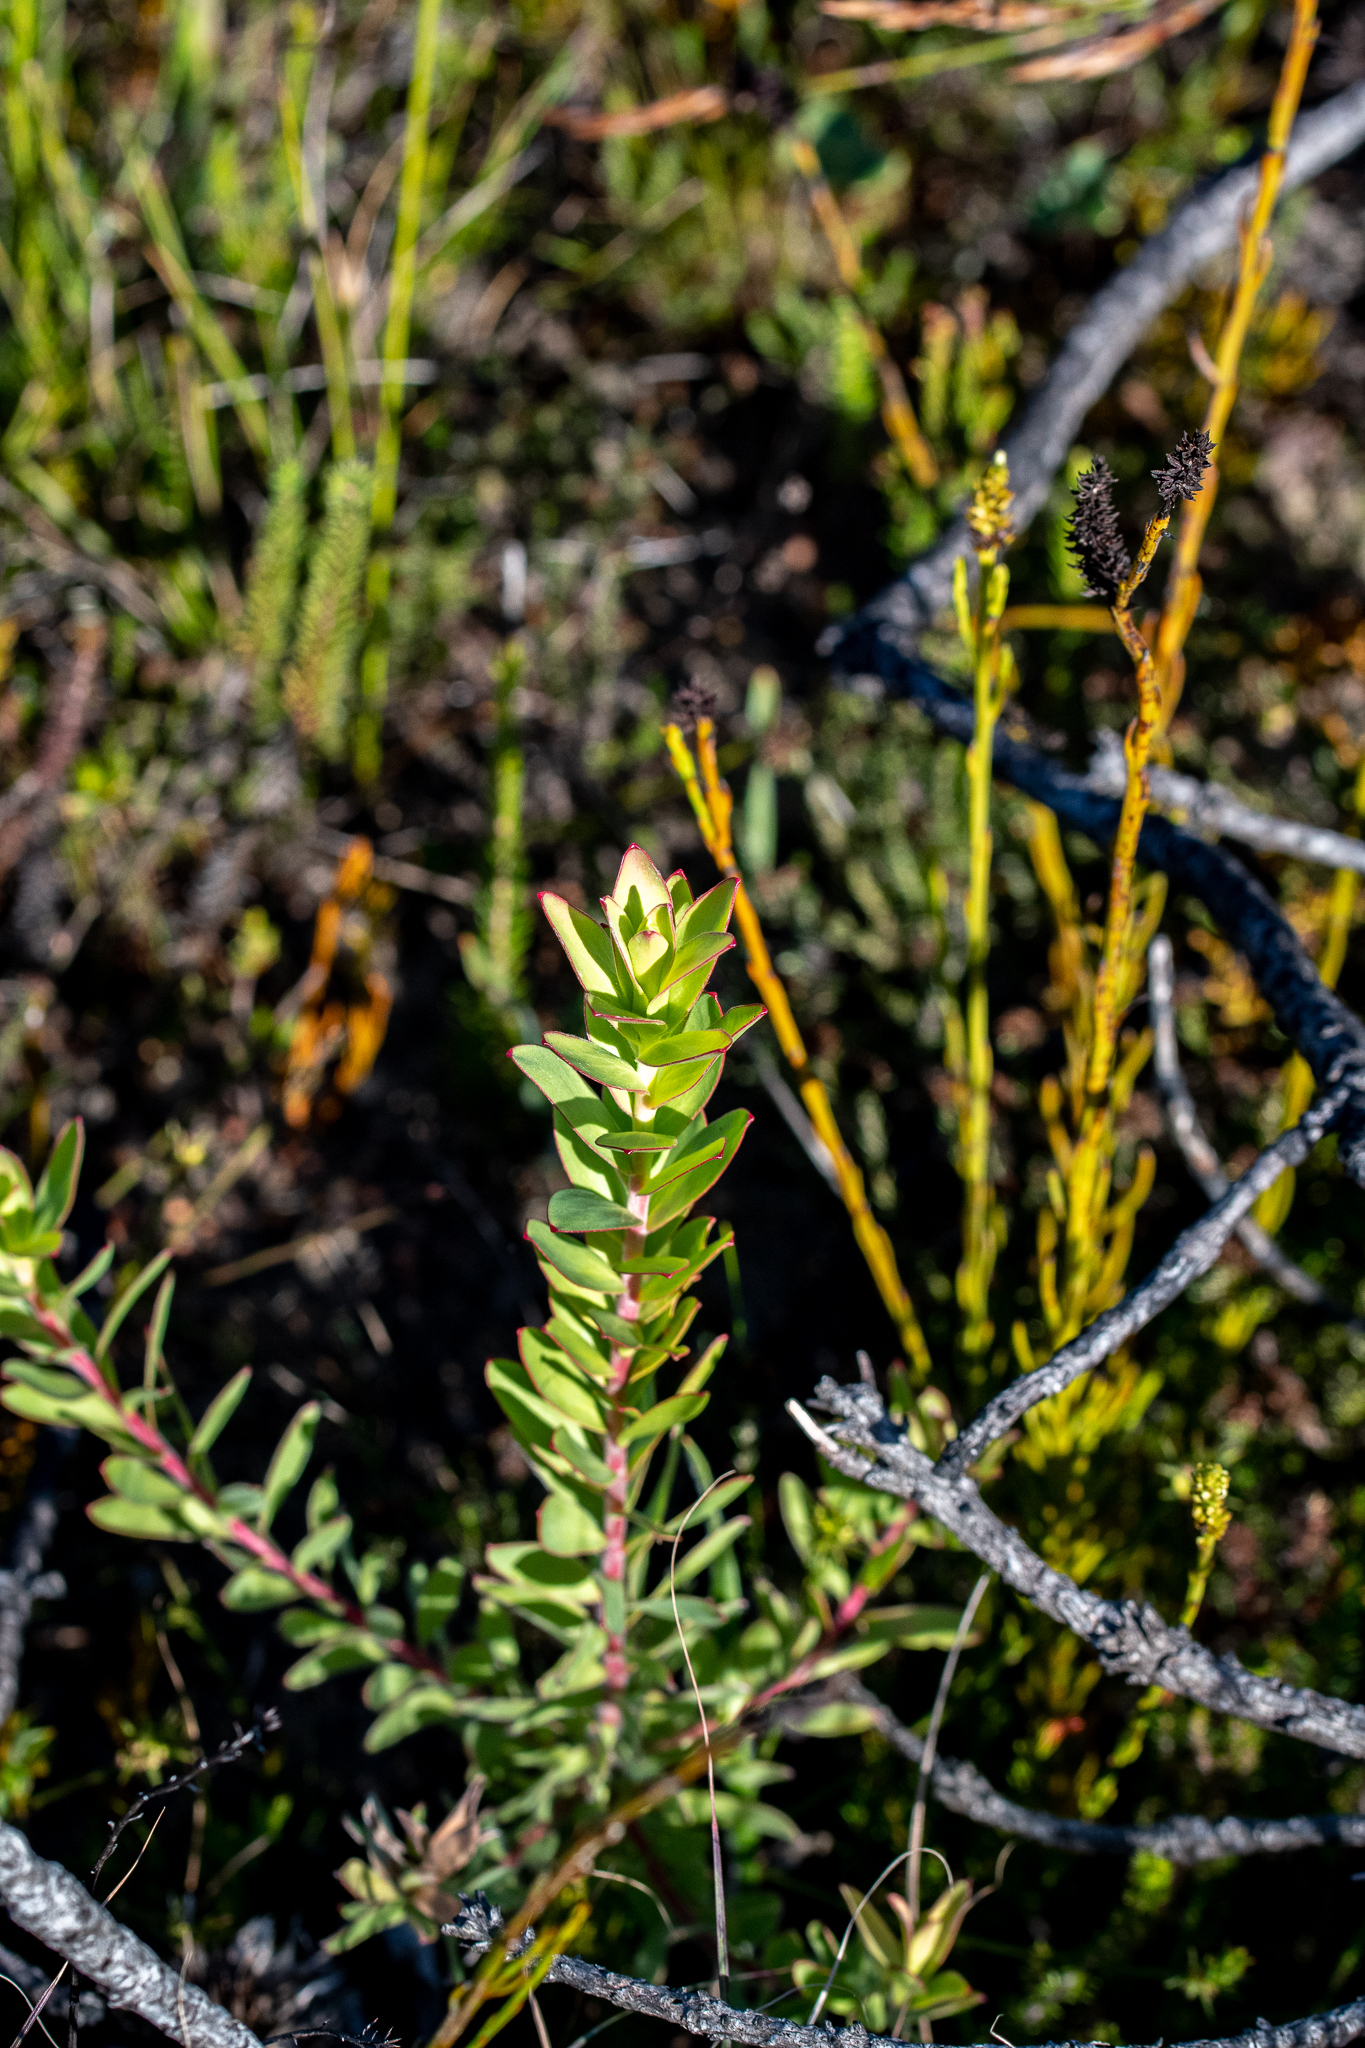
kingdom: Plantae
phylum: Tracheophyta
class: Magnoliopsida
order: Proteales
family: Proteaceae
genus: Leucadendron
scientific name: Leucadendron elimense
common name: Elim conebush
